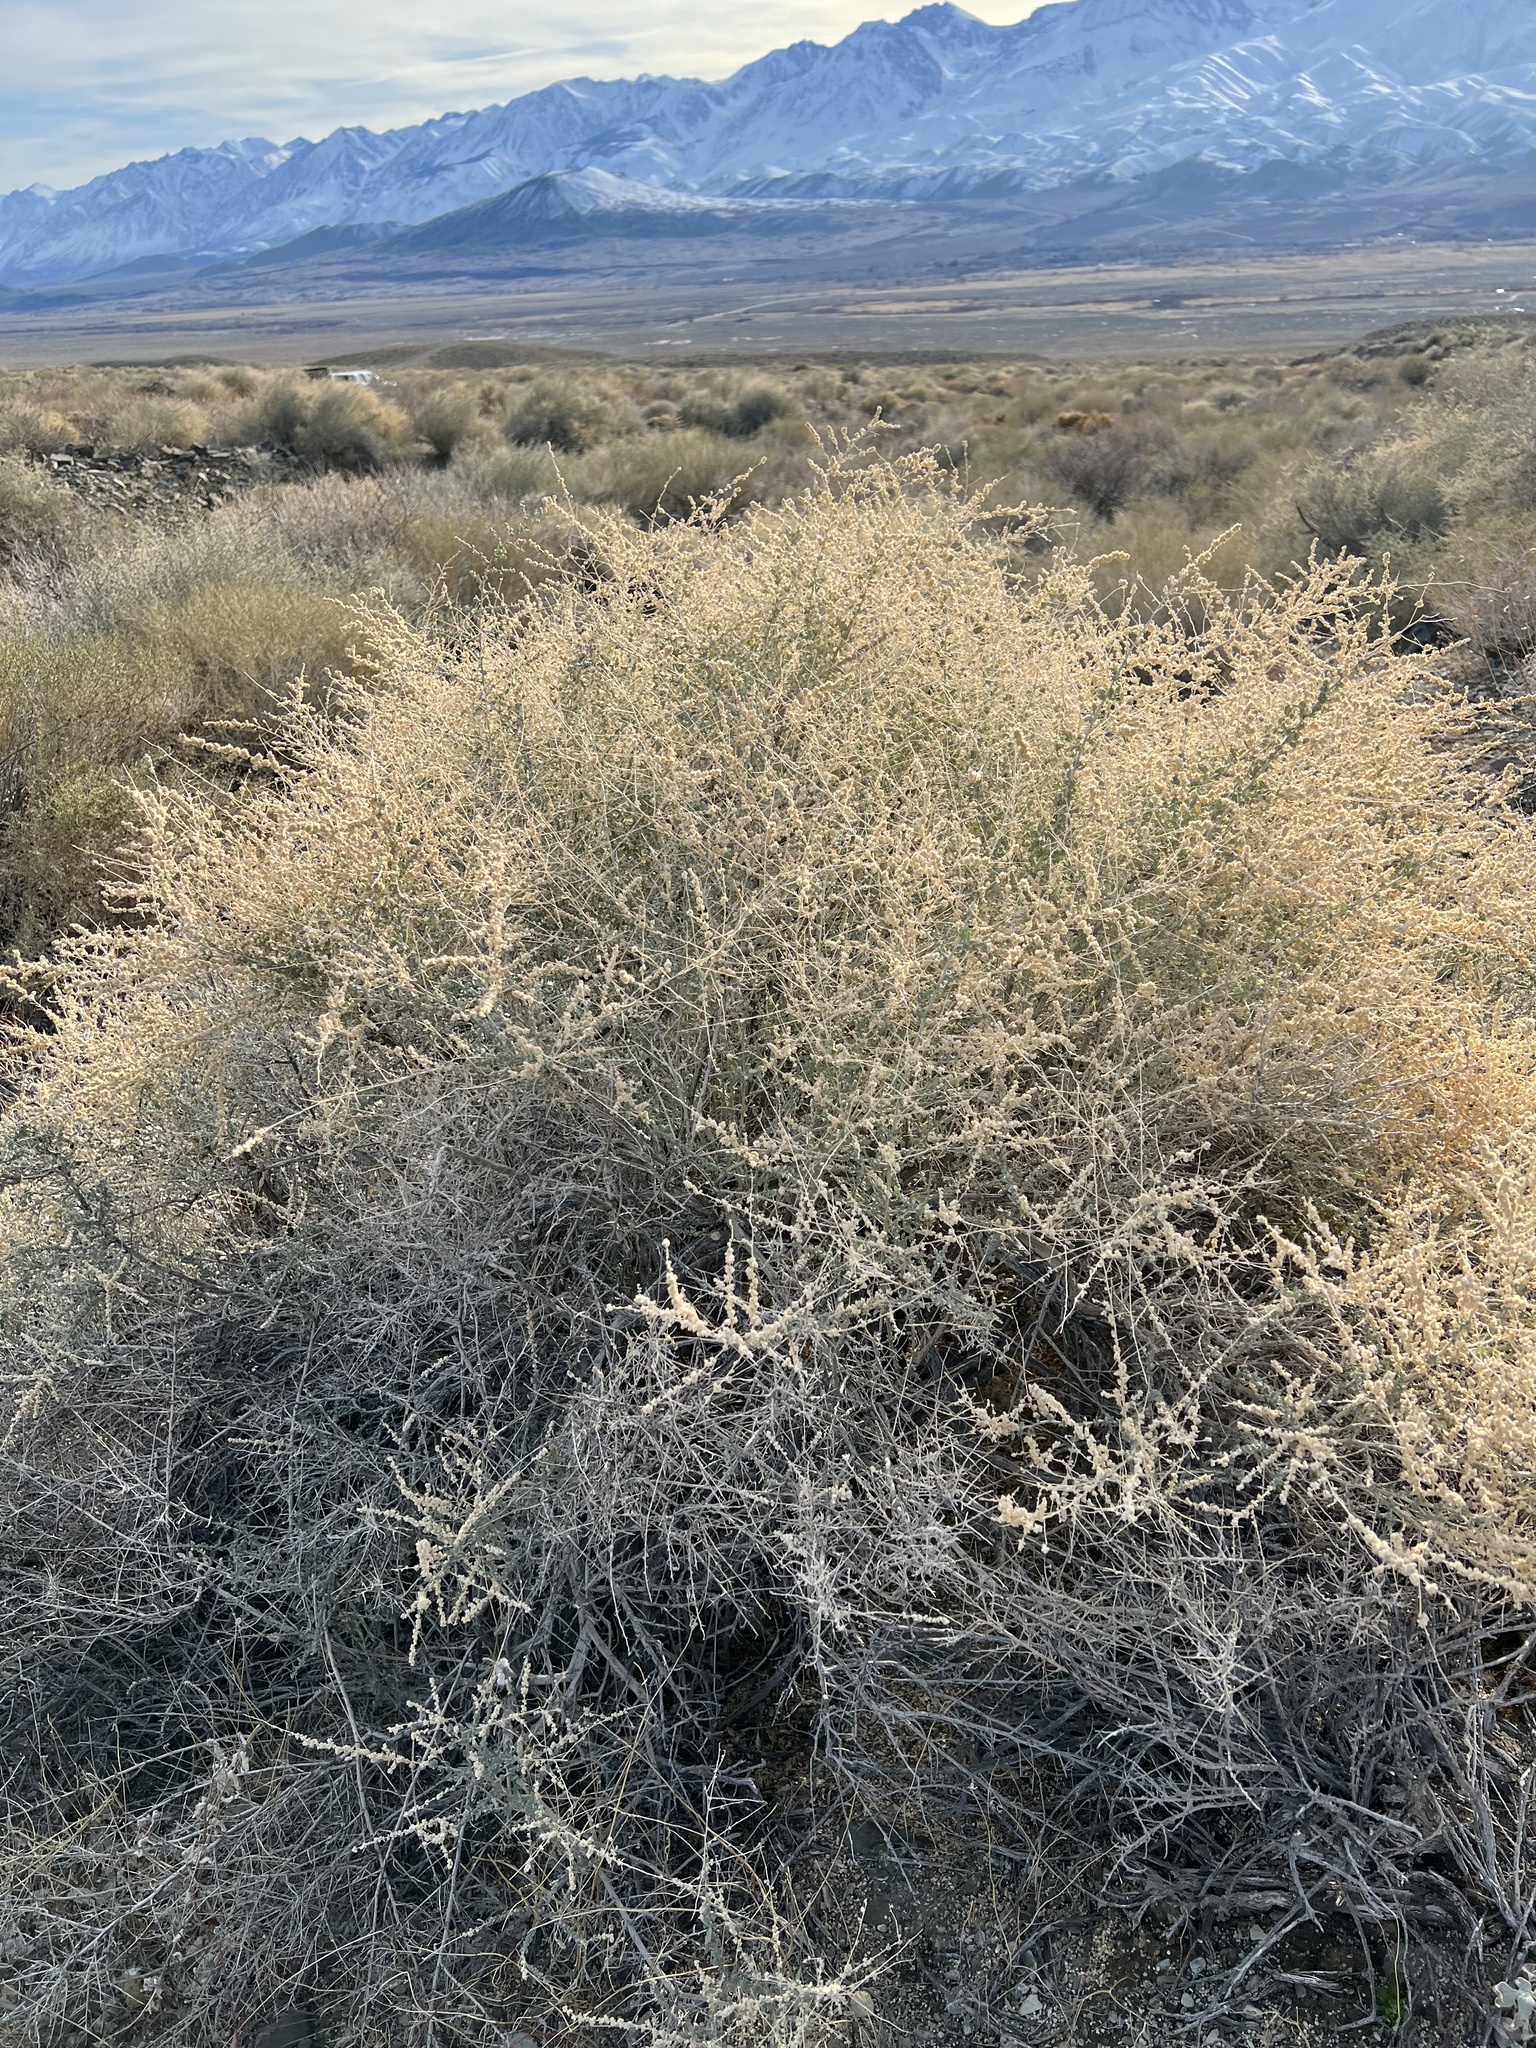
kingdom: Plantae
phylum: Tracheophyta
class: Magnoliopsida
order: Caryophyllales
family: Amaranthaceae
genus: Atriplex
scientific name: Atriplex polycarpa
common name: Desert saltbush
